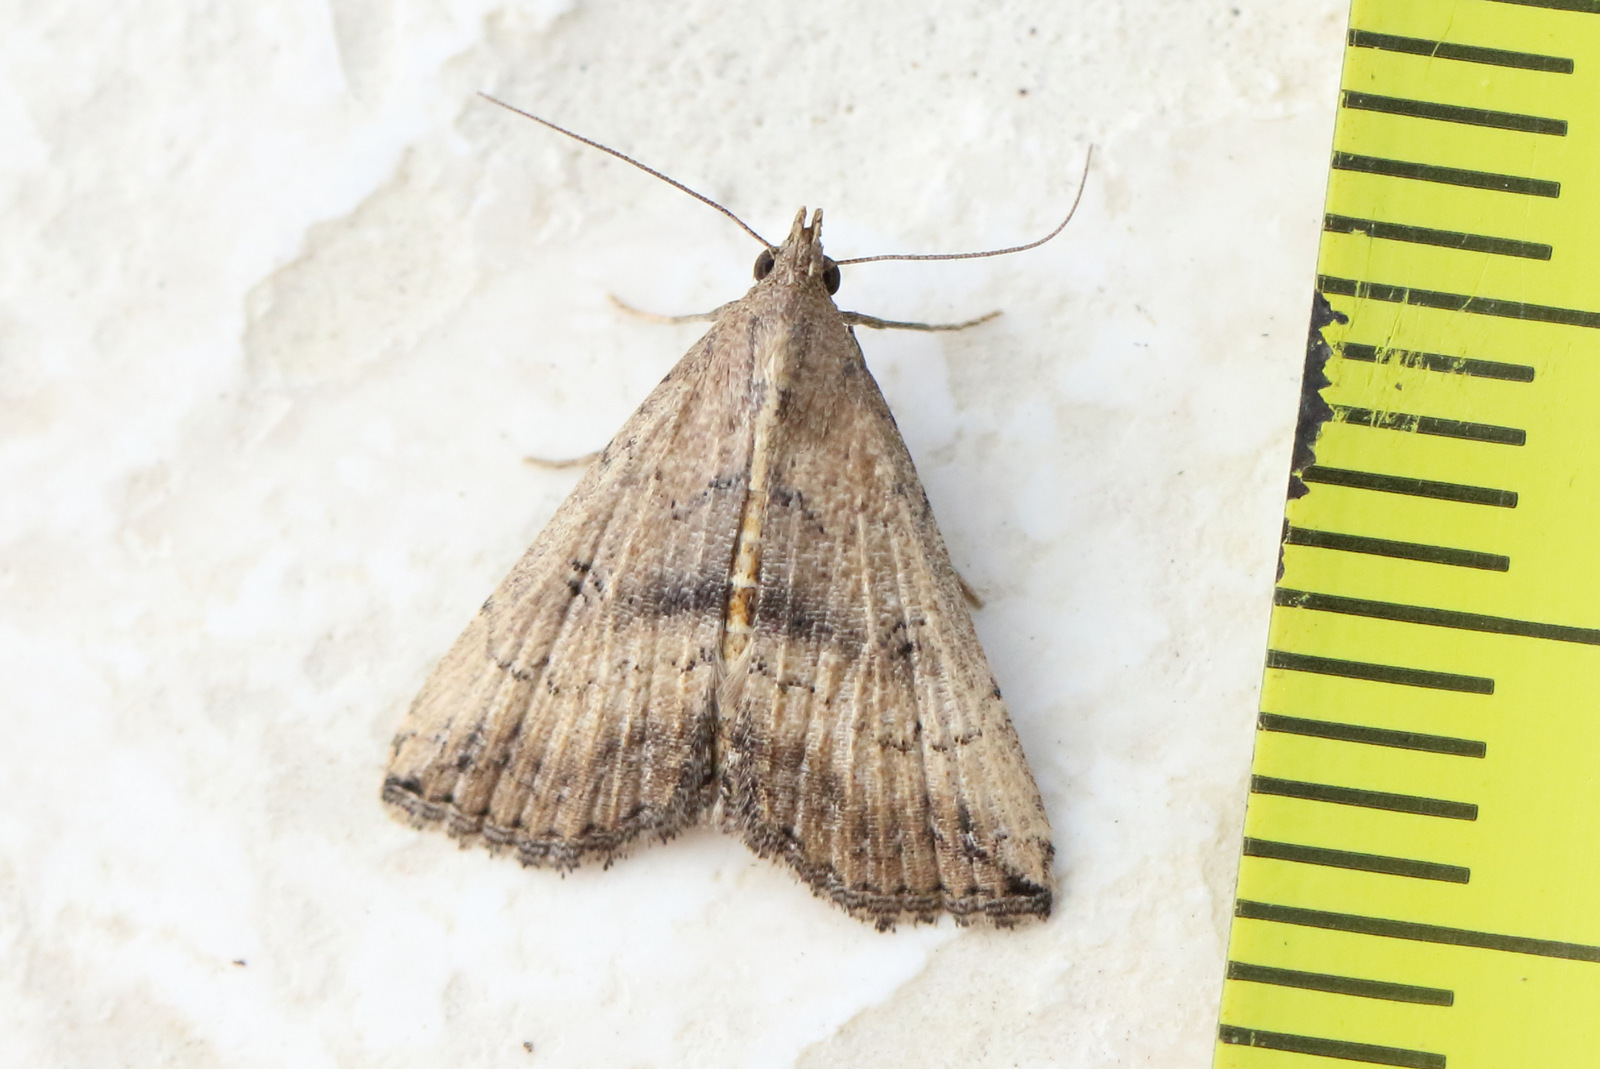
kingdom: Animalia
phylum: Arthropoda
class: Insecta
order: Lepidoptera
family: Erebidae
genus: Hypena
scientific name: Hypena umbrifera
